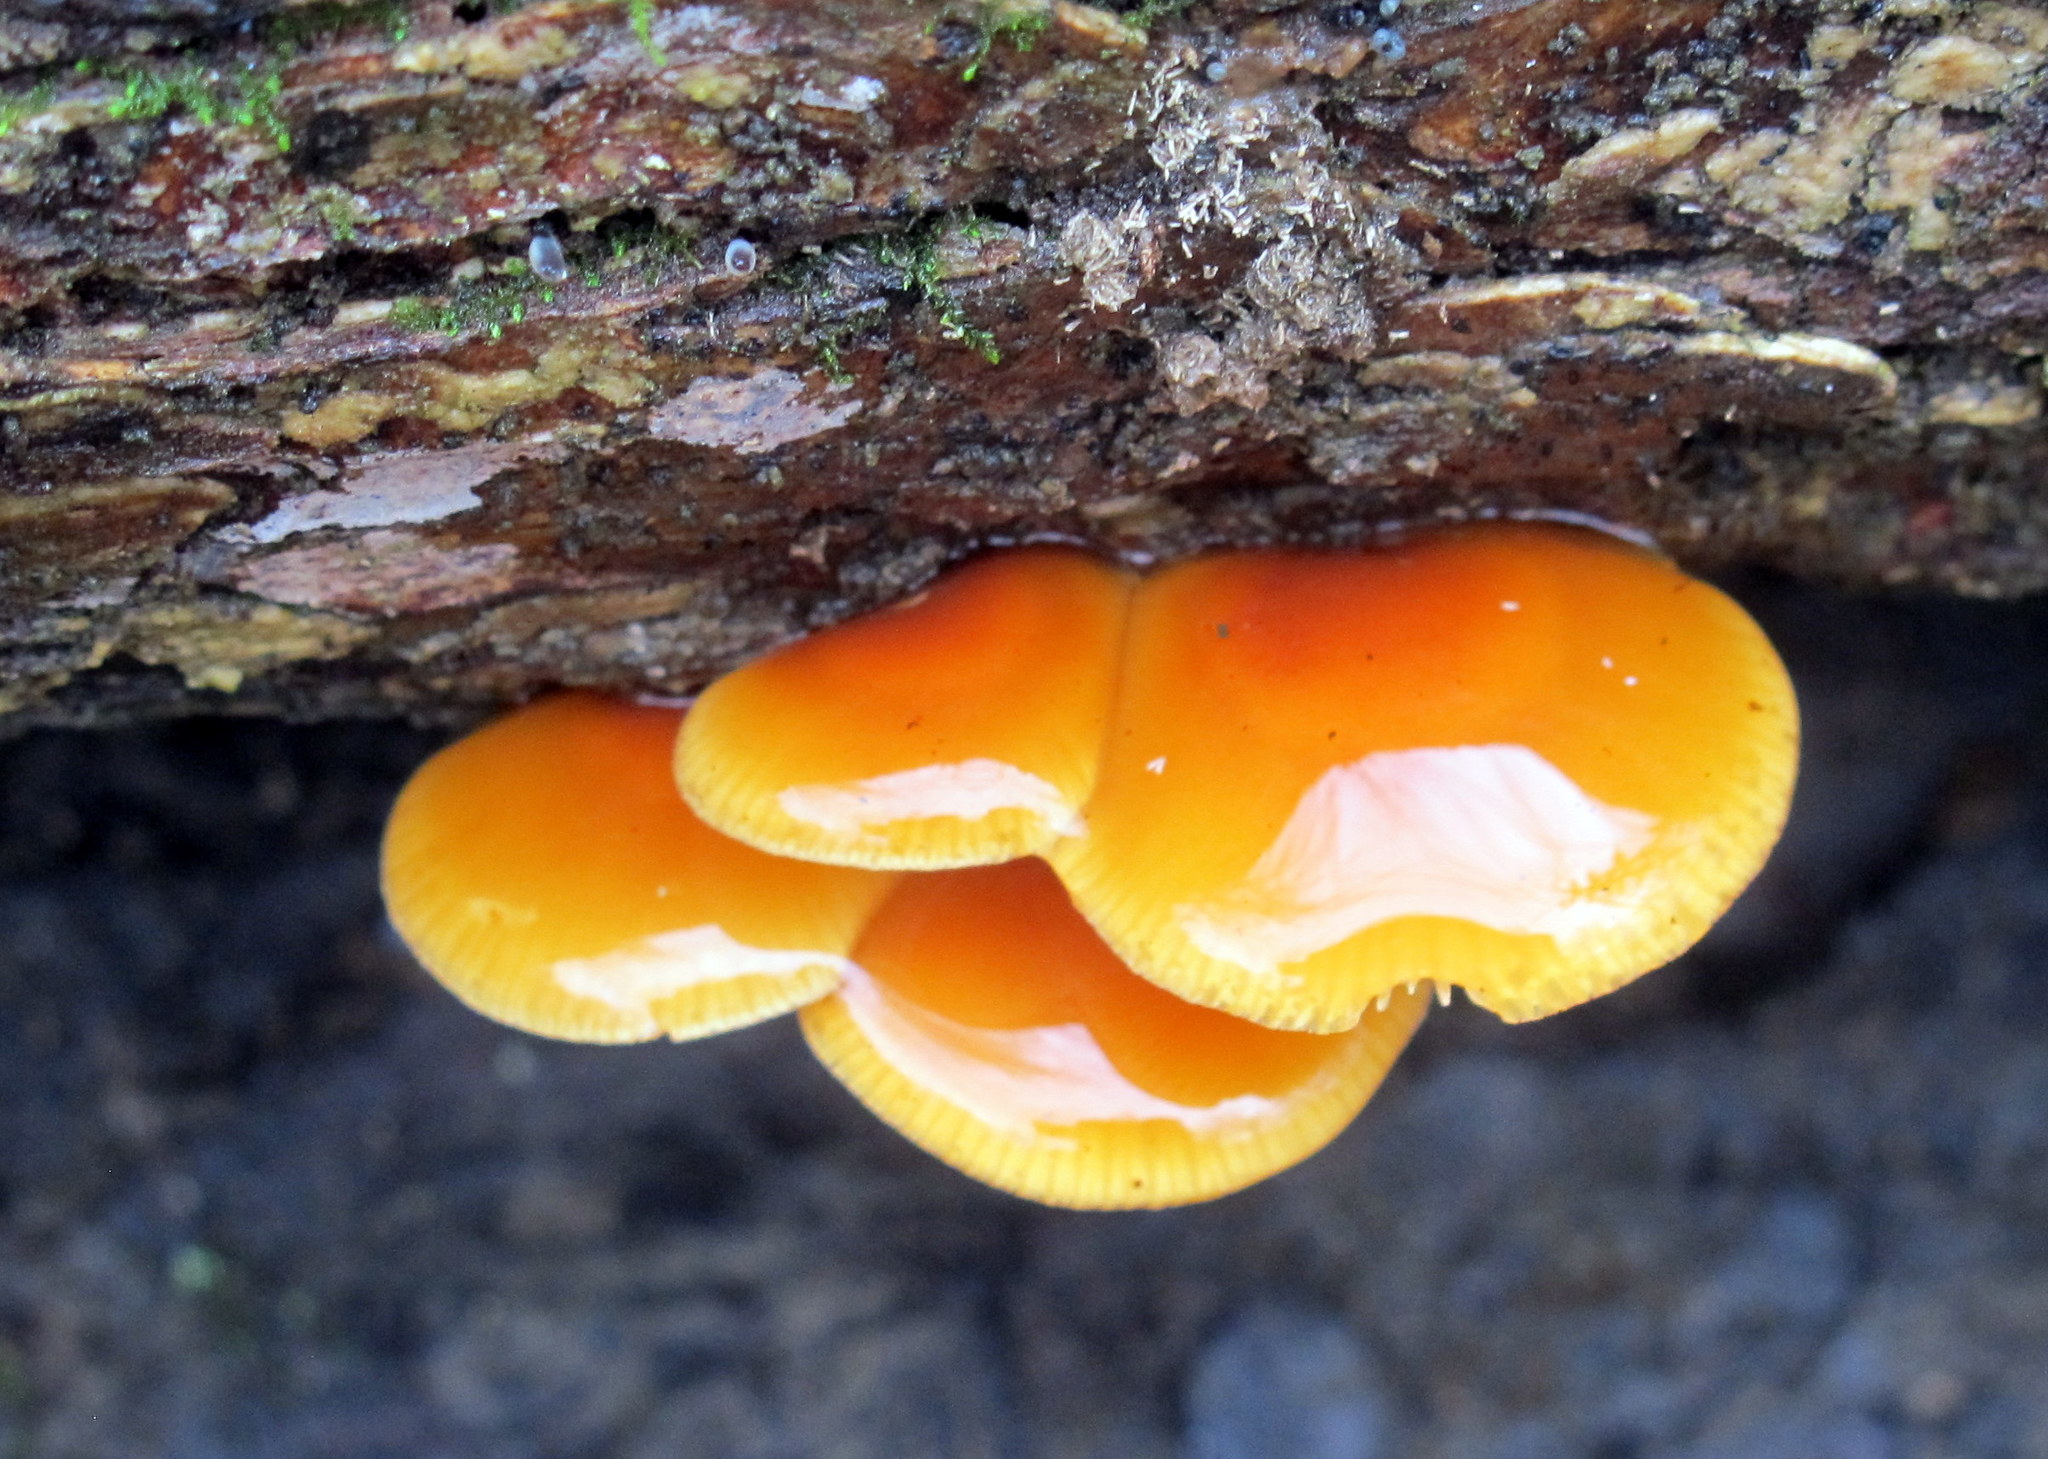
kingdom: Fungi
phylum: Basidiomycota
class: Agaricomycetes
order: Agaricales
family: Physalacriaceae
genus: Flammulina
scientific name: Flammulina velutipes
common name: Velvet shank
